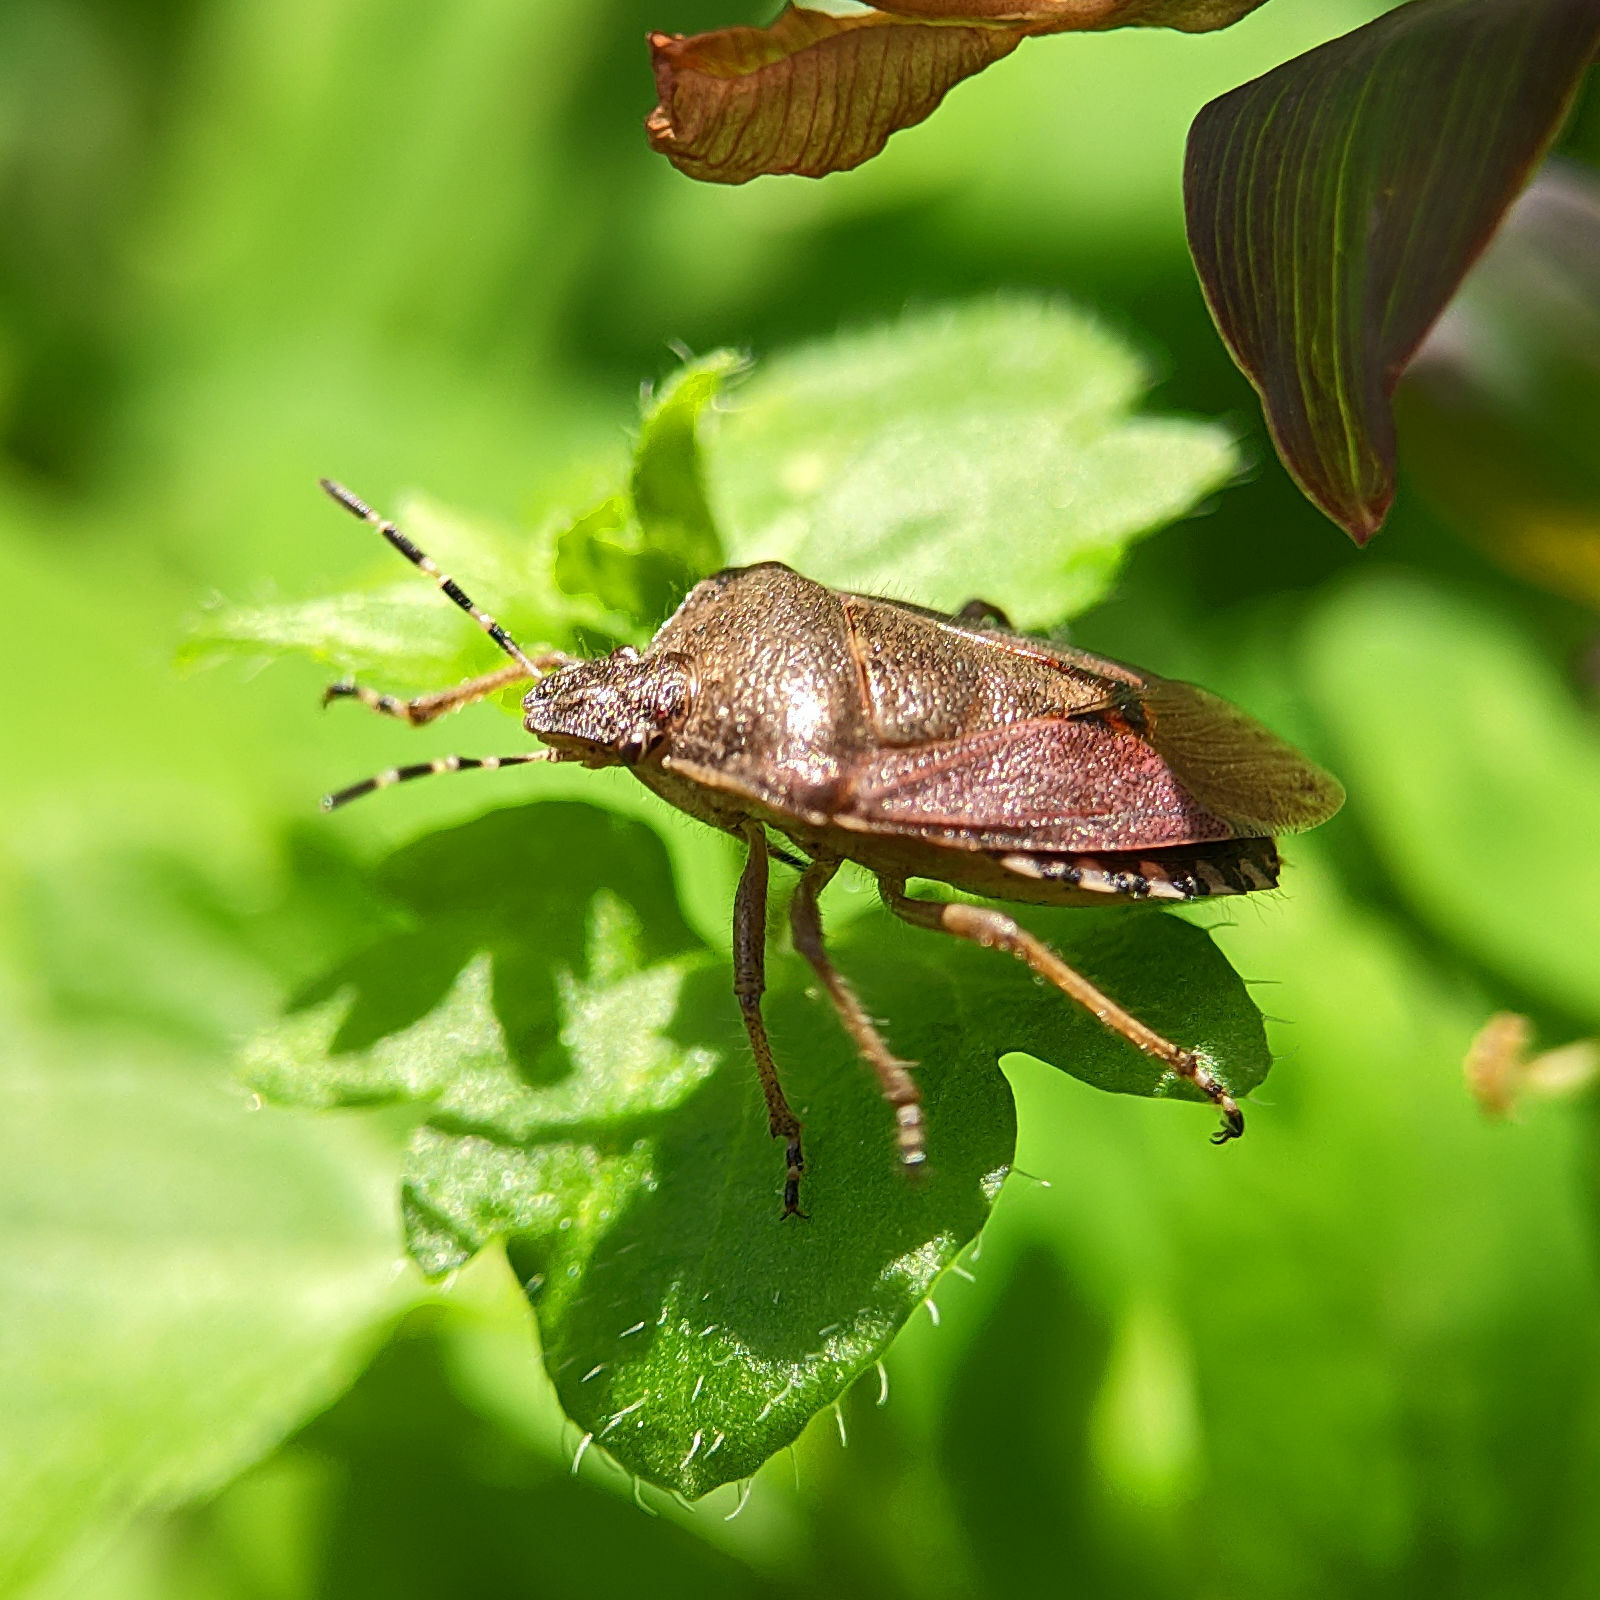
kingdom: Animalia
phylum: Arthropoda
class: Insecta
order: Hemiptera
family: Pentatomidae
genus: Dolycoris
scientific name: Dolycoris baccarum
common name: Sloe bug
